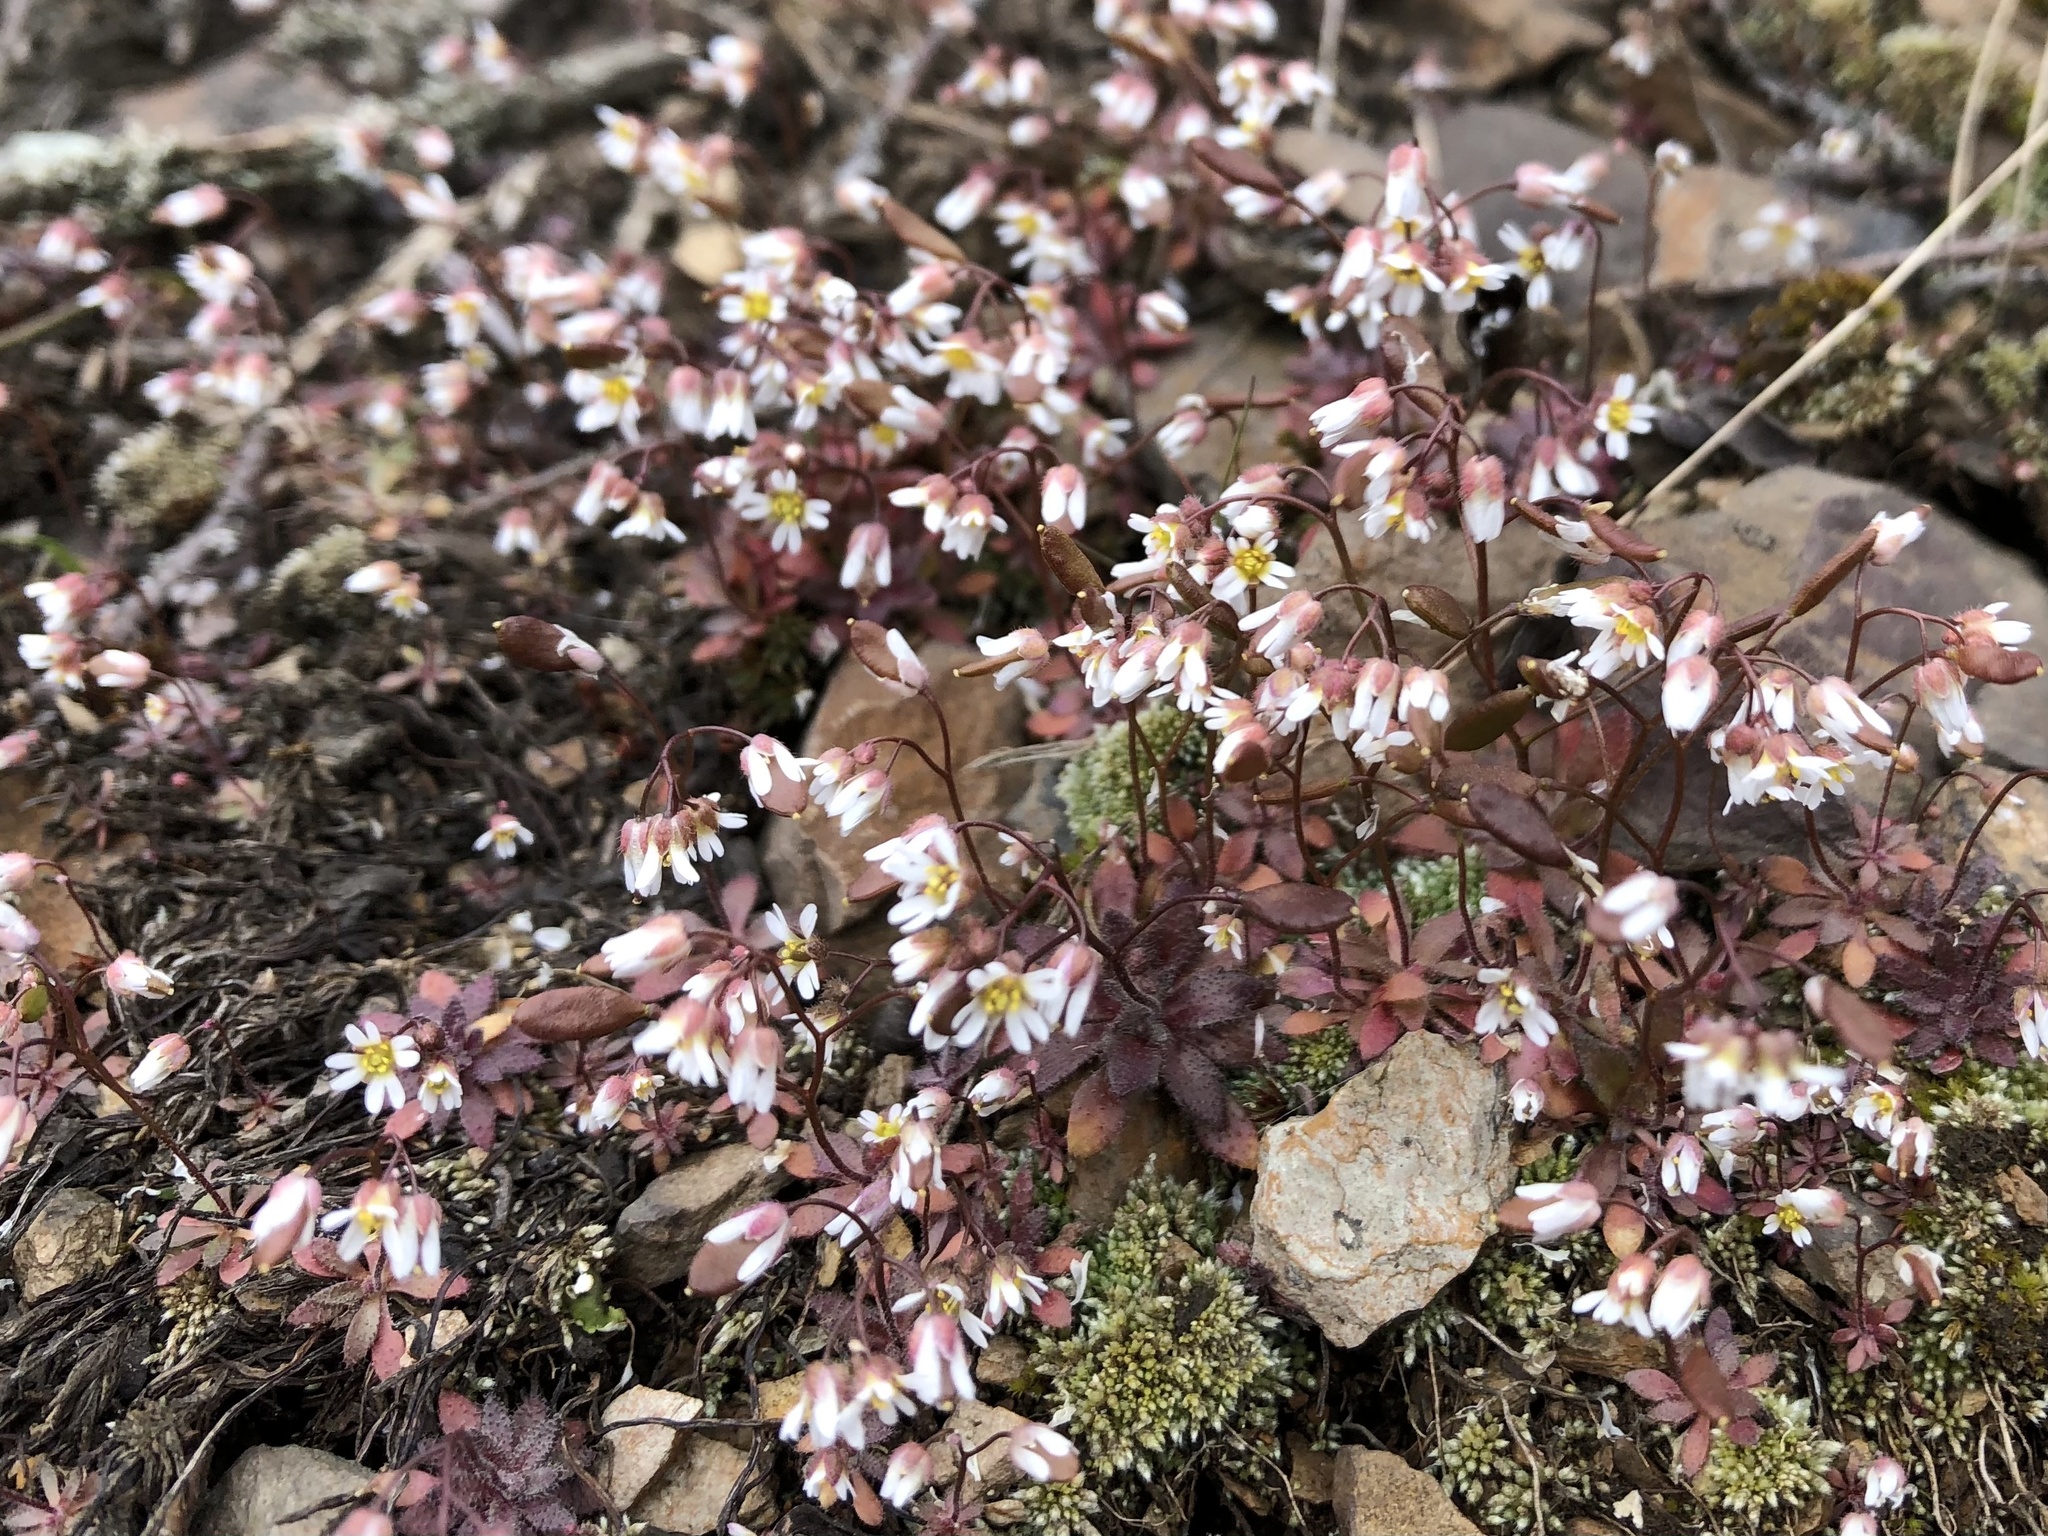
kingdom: Plantae
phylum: Tracheophyta
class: Magnoliopsida
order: Brassicales
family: Brassicaceae
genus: Draba
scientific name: Draba verna
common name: Spring draba
